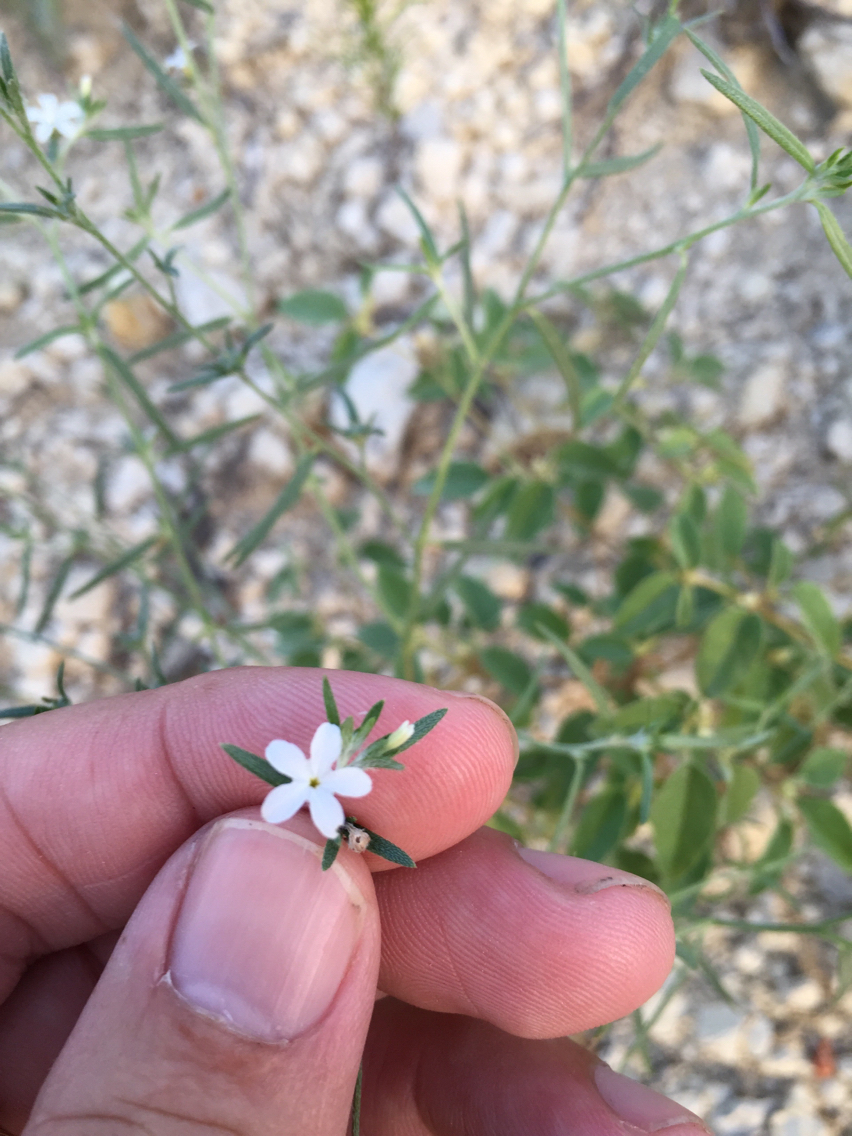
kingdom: Plantae
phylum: Tracheophyta
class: Magnoliopsida
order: Boraginales
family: Heliotropiaceae
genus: Euploca
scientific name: Euploca tenella
